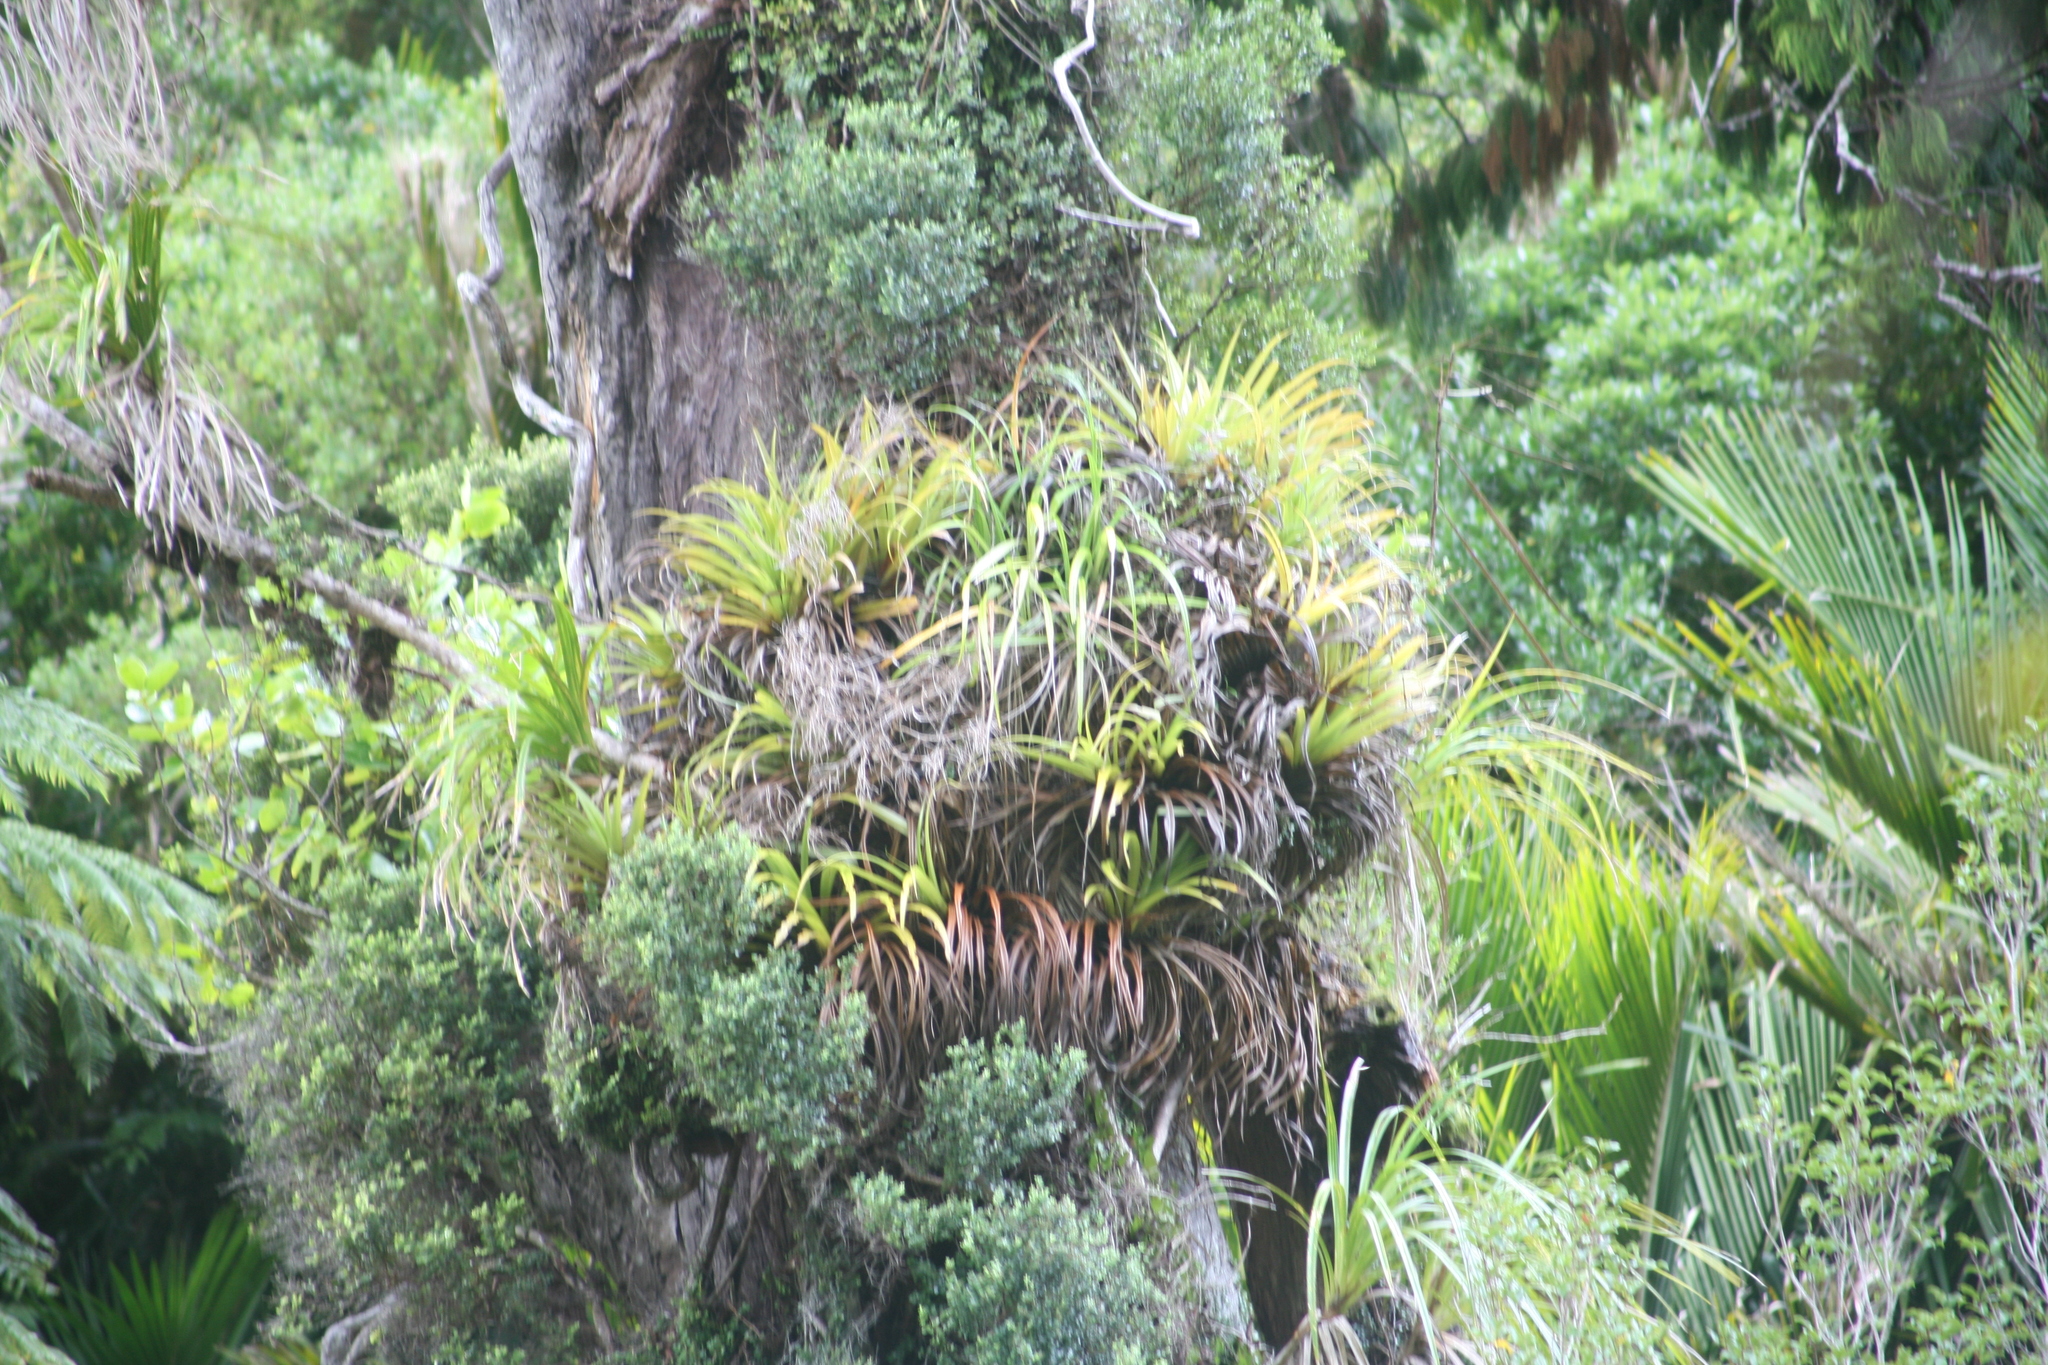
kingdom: Plantae
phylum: Tracheophyta
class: Liliopsida
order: Asparagales
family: Asteliaceae
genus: Astelia
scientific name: Astelia hastata
